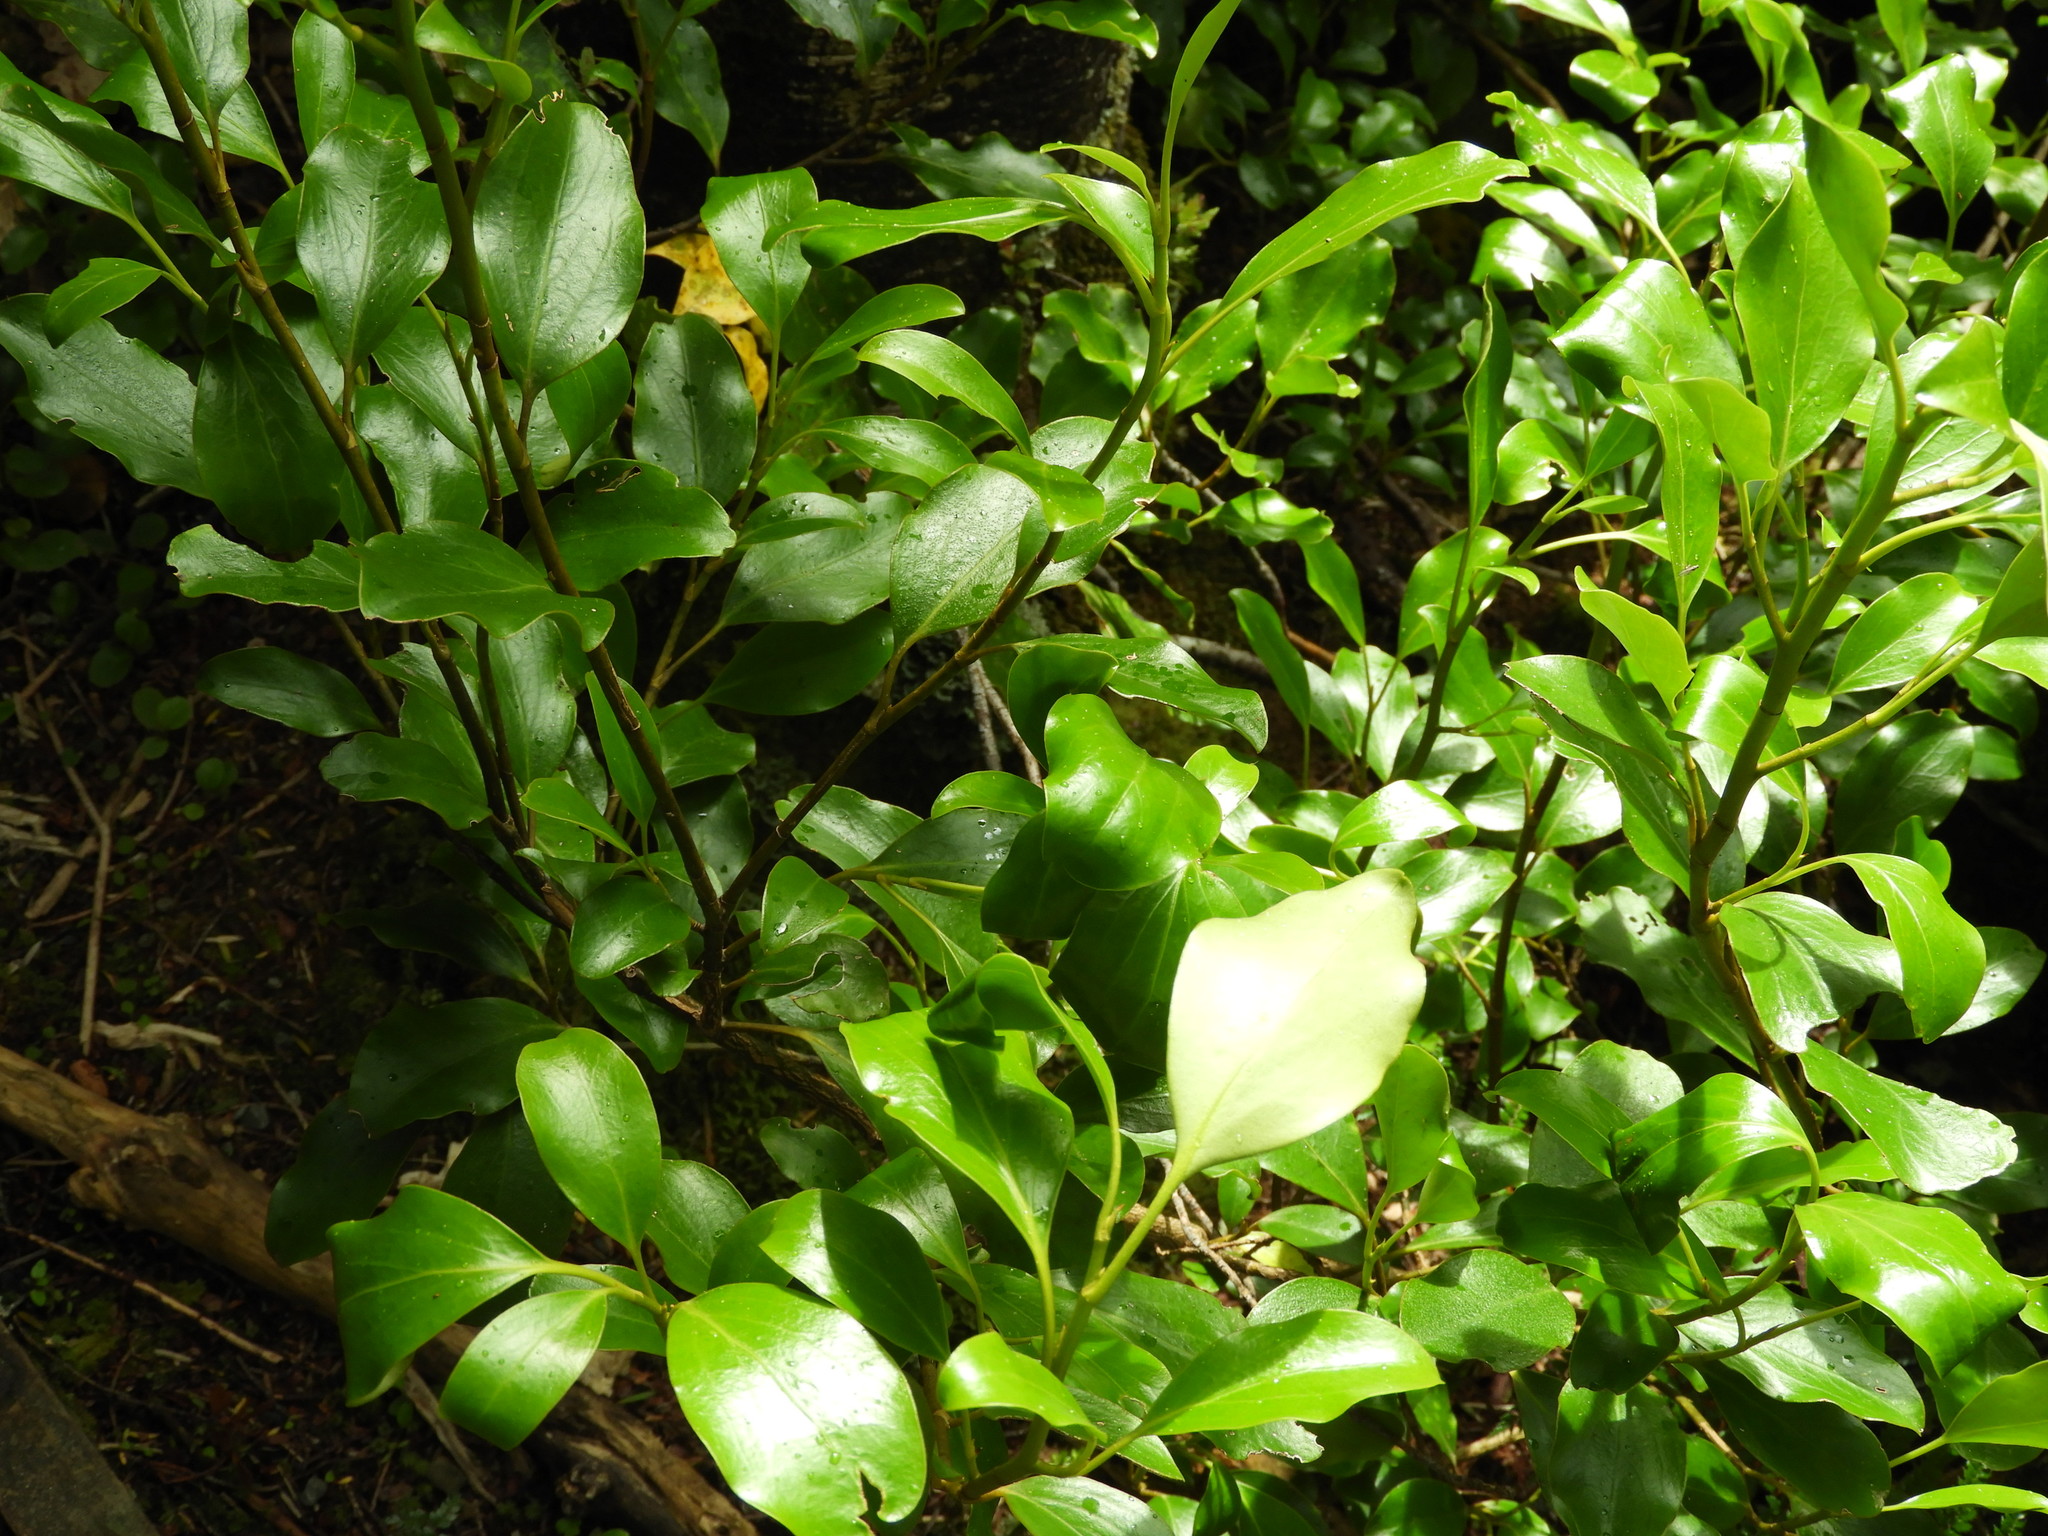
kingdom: Plantae
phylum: Tracheophyta
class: Magnoliopsida
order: Apiales
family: Griseliniaceae
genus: Griselinia
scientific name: Griselinia littoralis
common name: New zealand broadleaf
